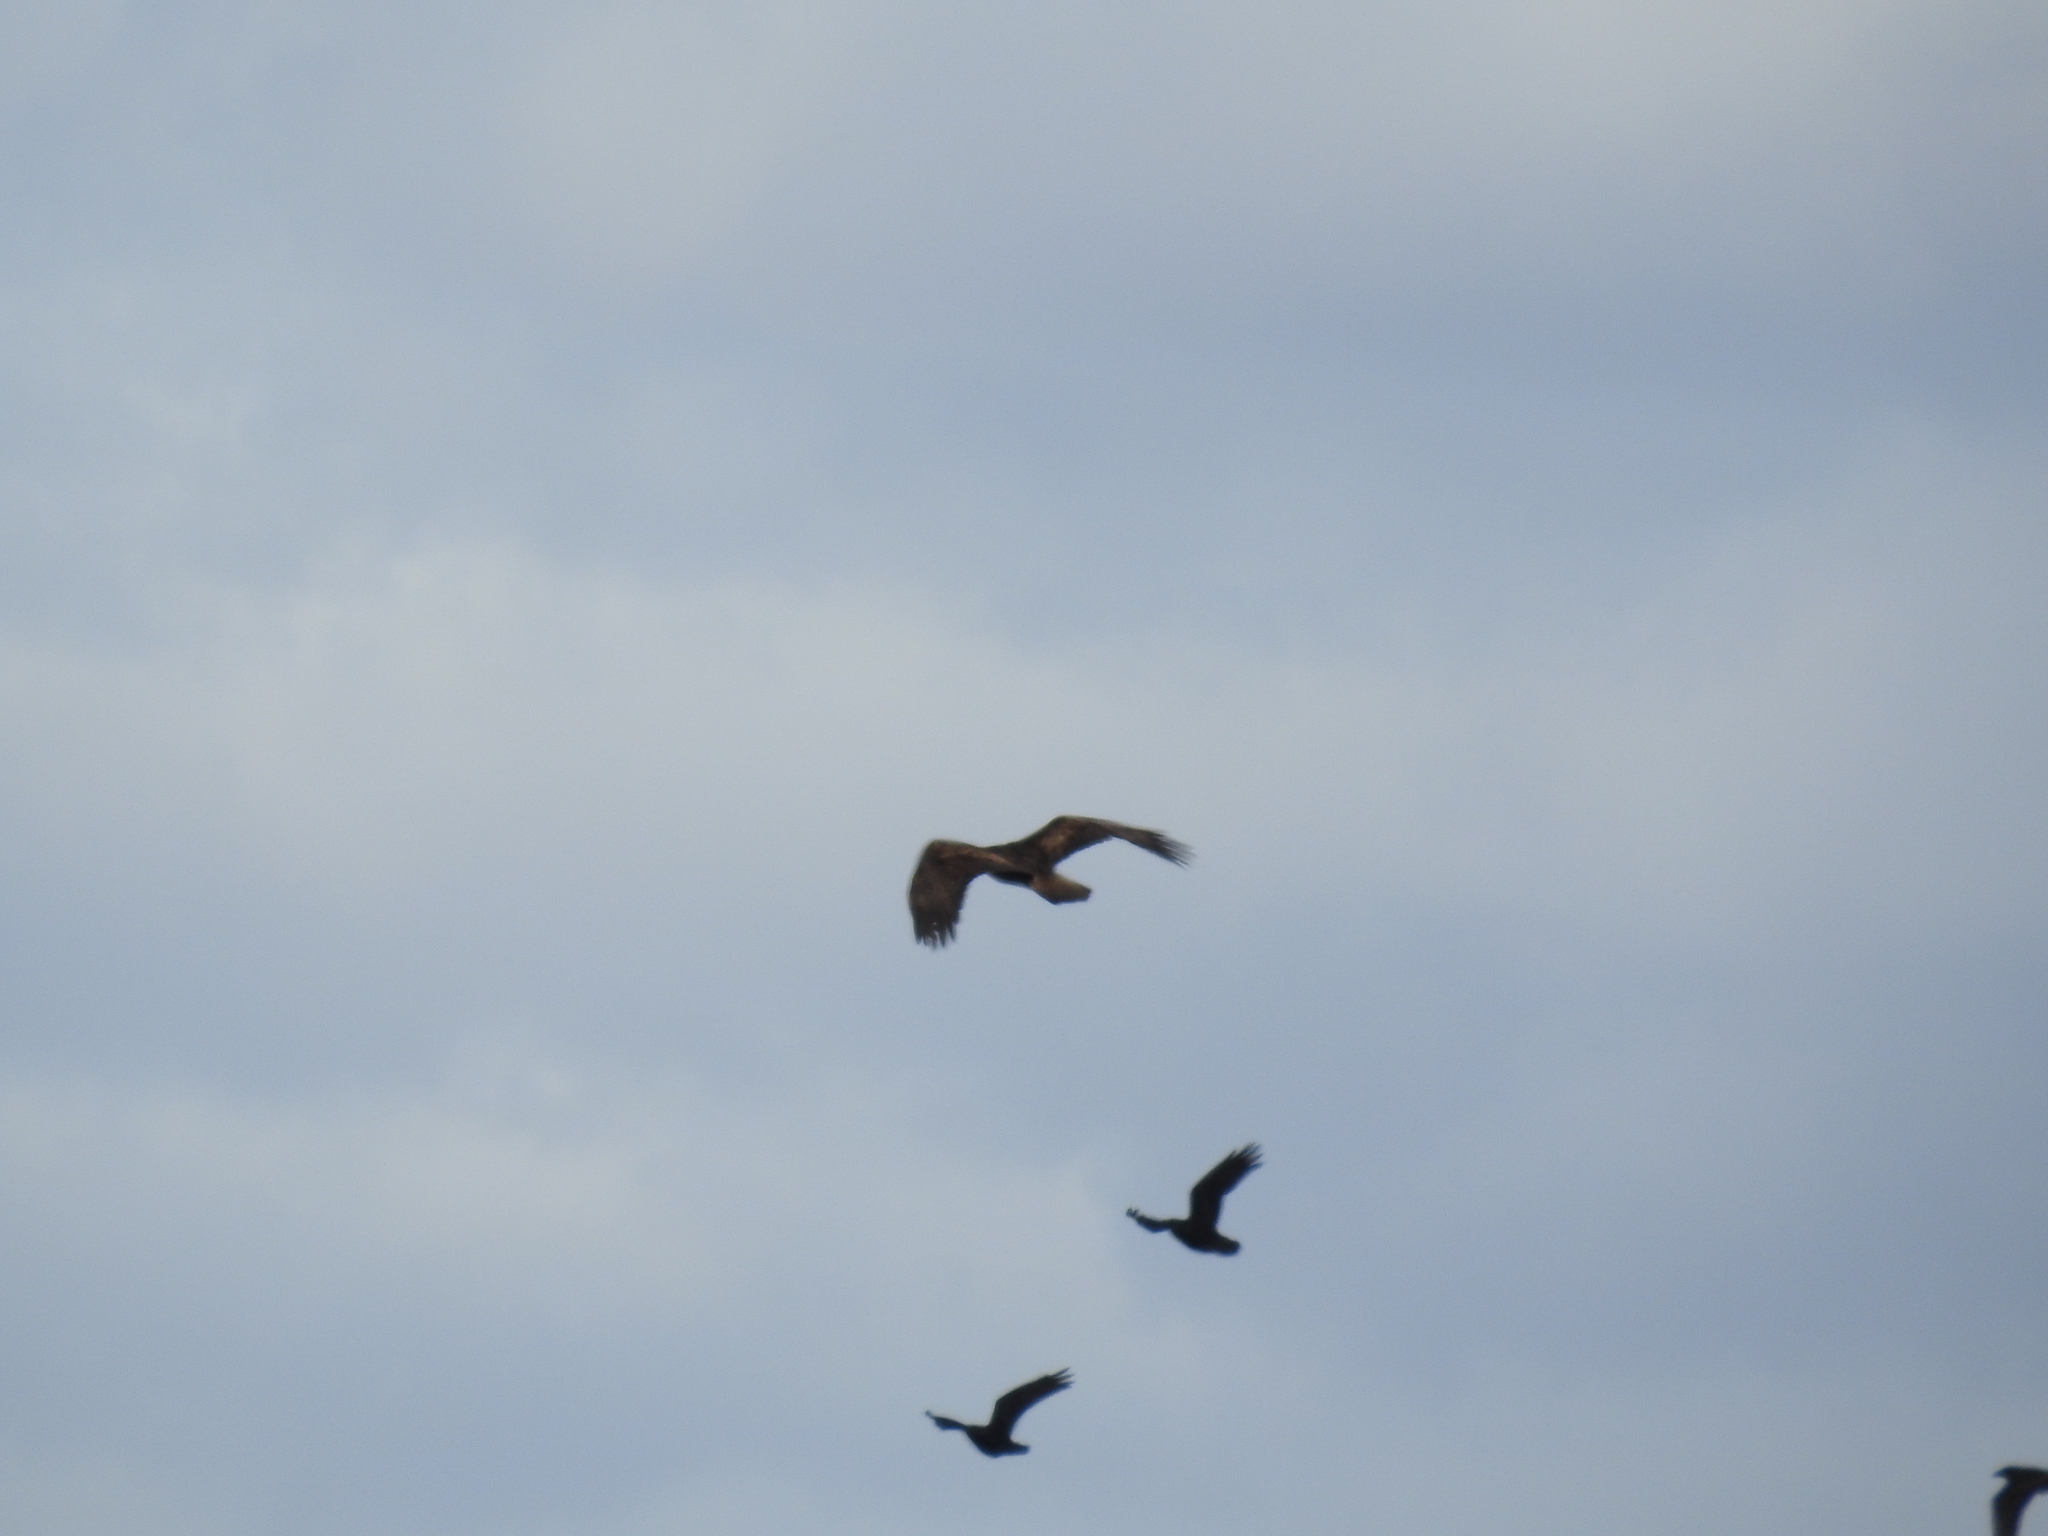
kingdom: Animalia
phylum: Chordata
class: Aves
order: Accipitriformes
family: Accipitridae
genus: Aquila
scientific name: Aquila chrysaetos
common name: Golden eagle
